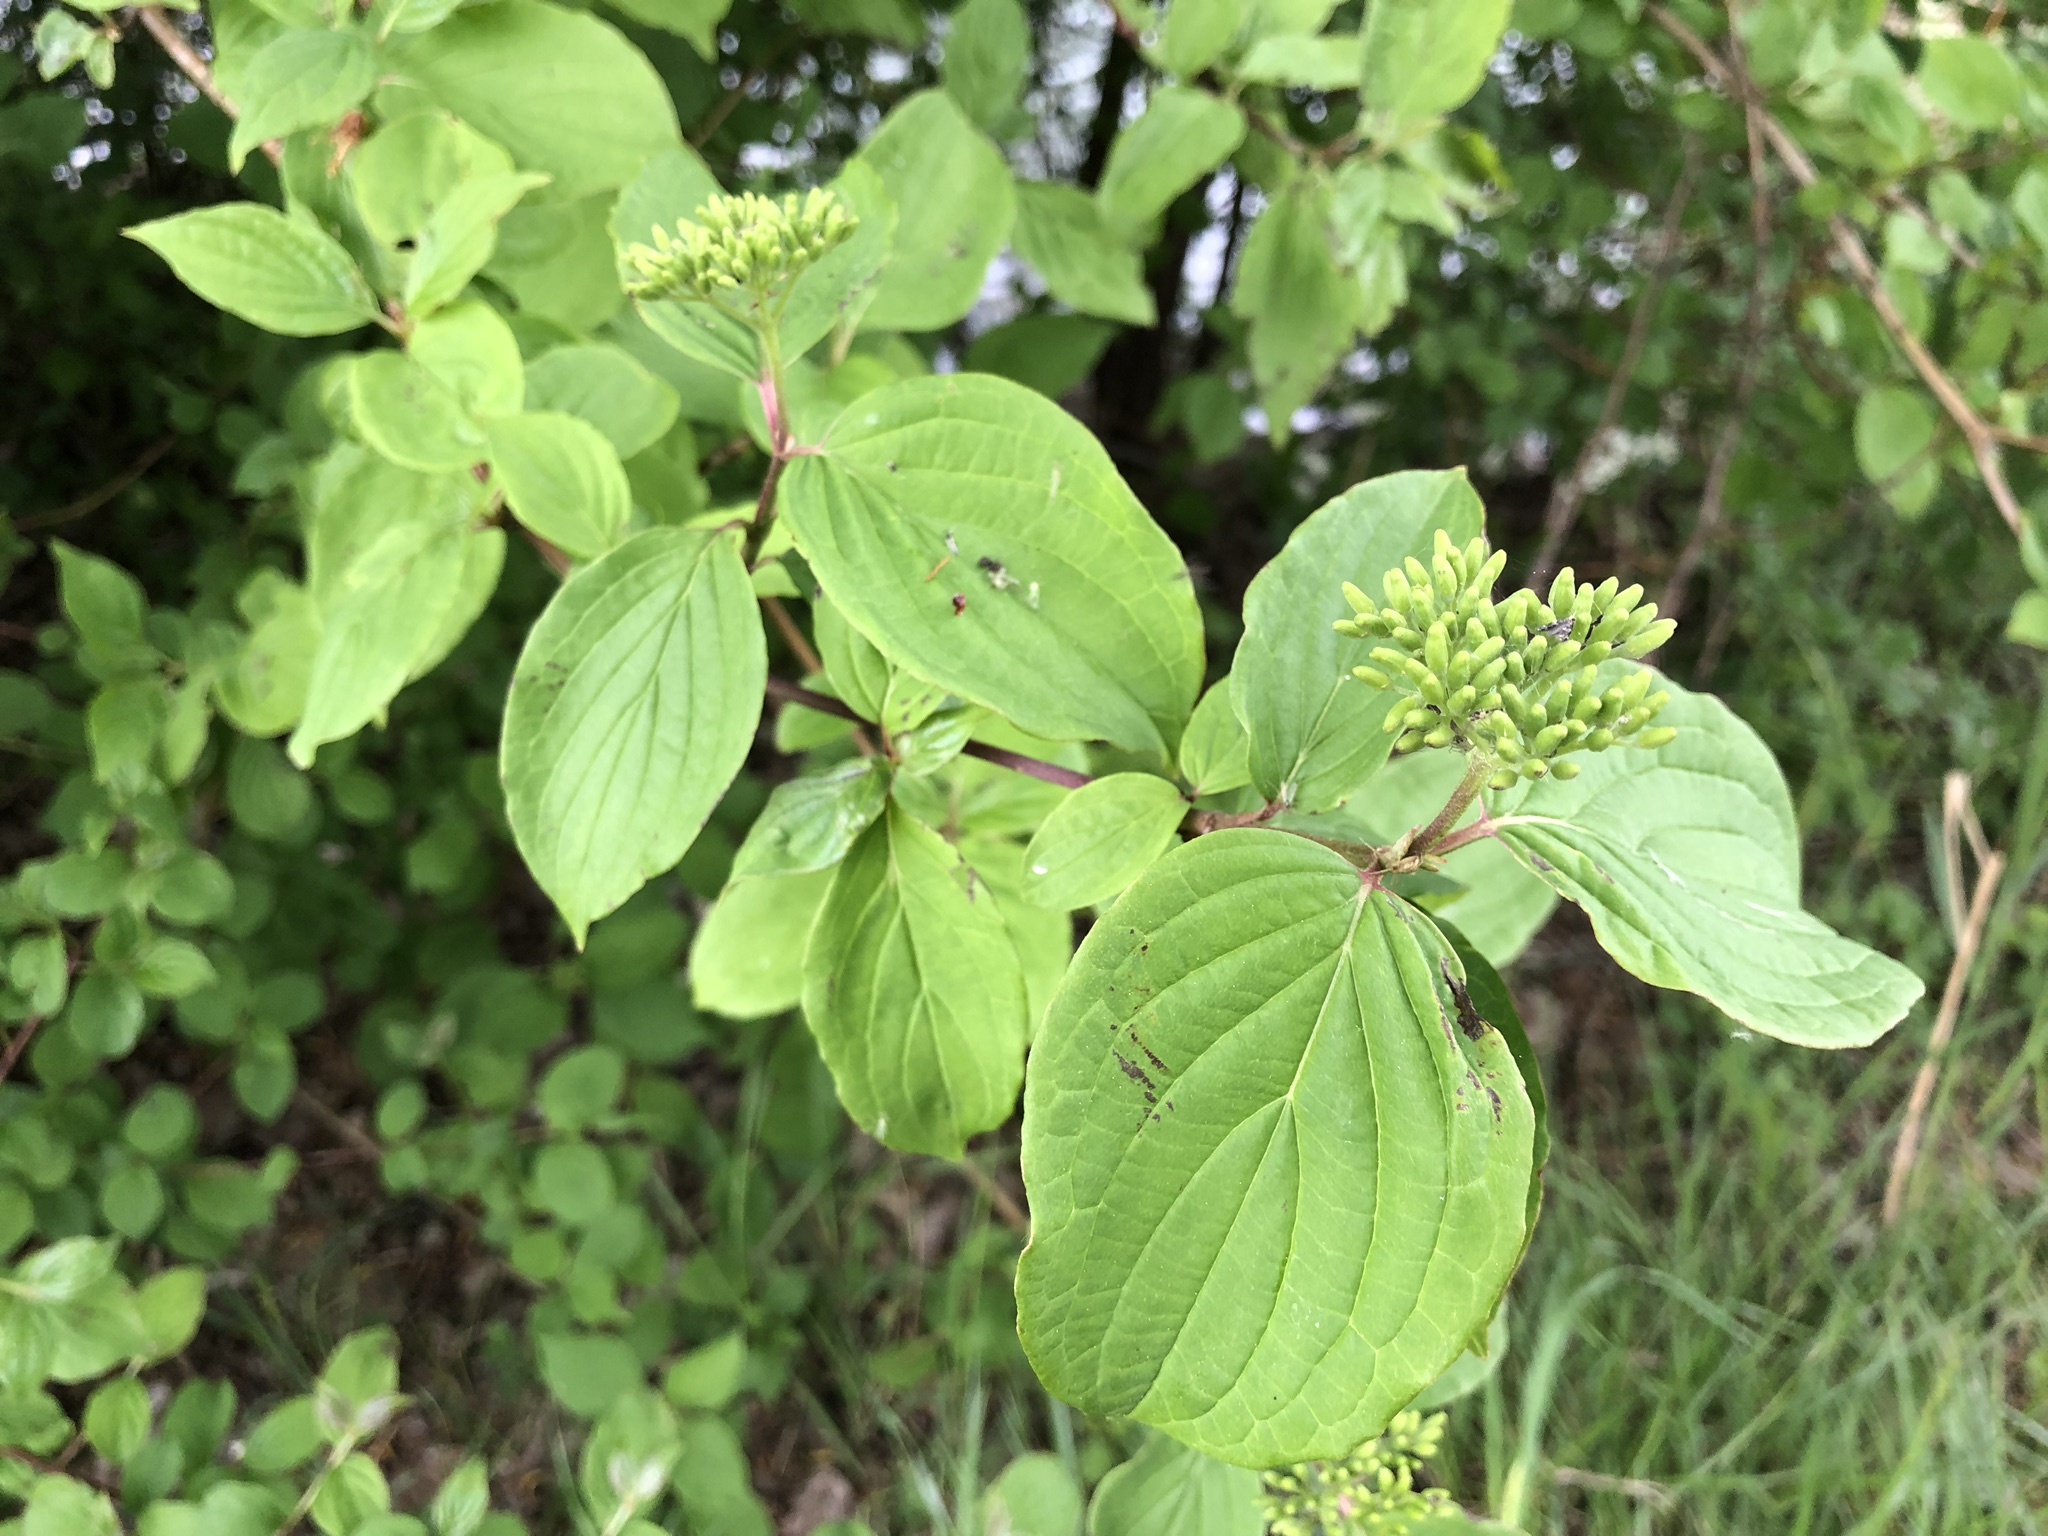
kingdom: Plantae
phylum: Tracheophyta
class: Magnoliopsida
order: Cornales
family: Cornaceae
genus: Cornus
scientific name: Cornus sanguinea
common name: Dogwood
